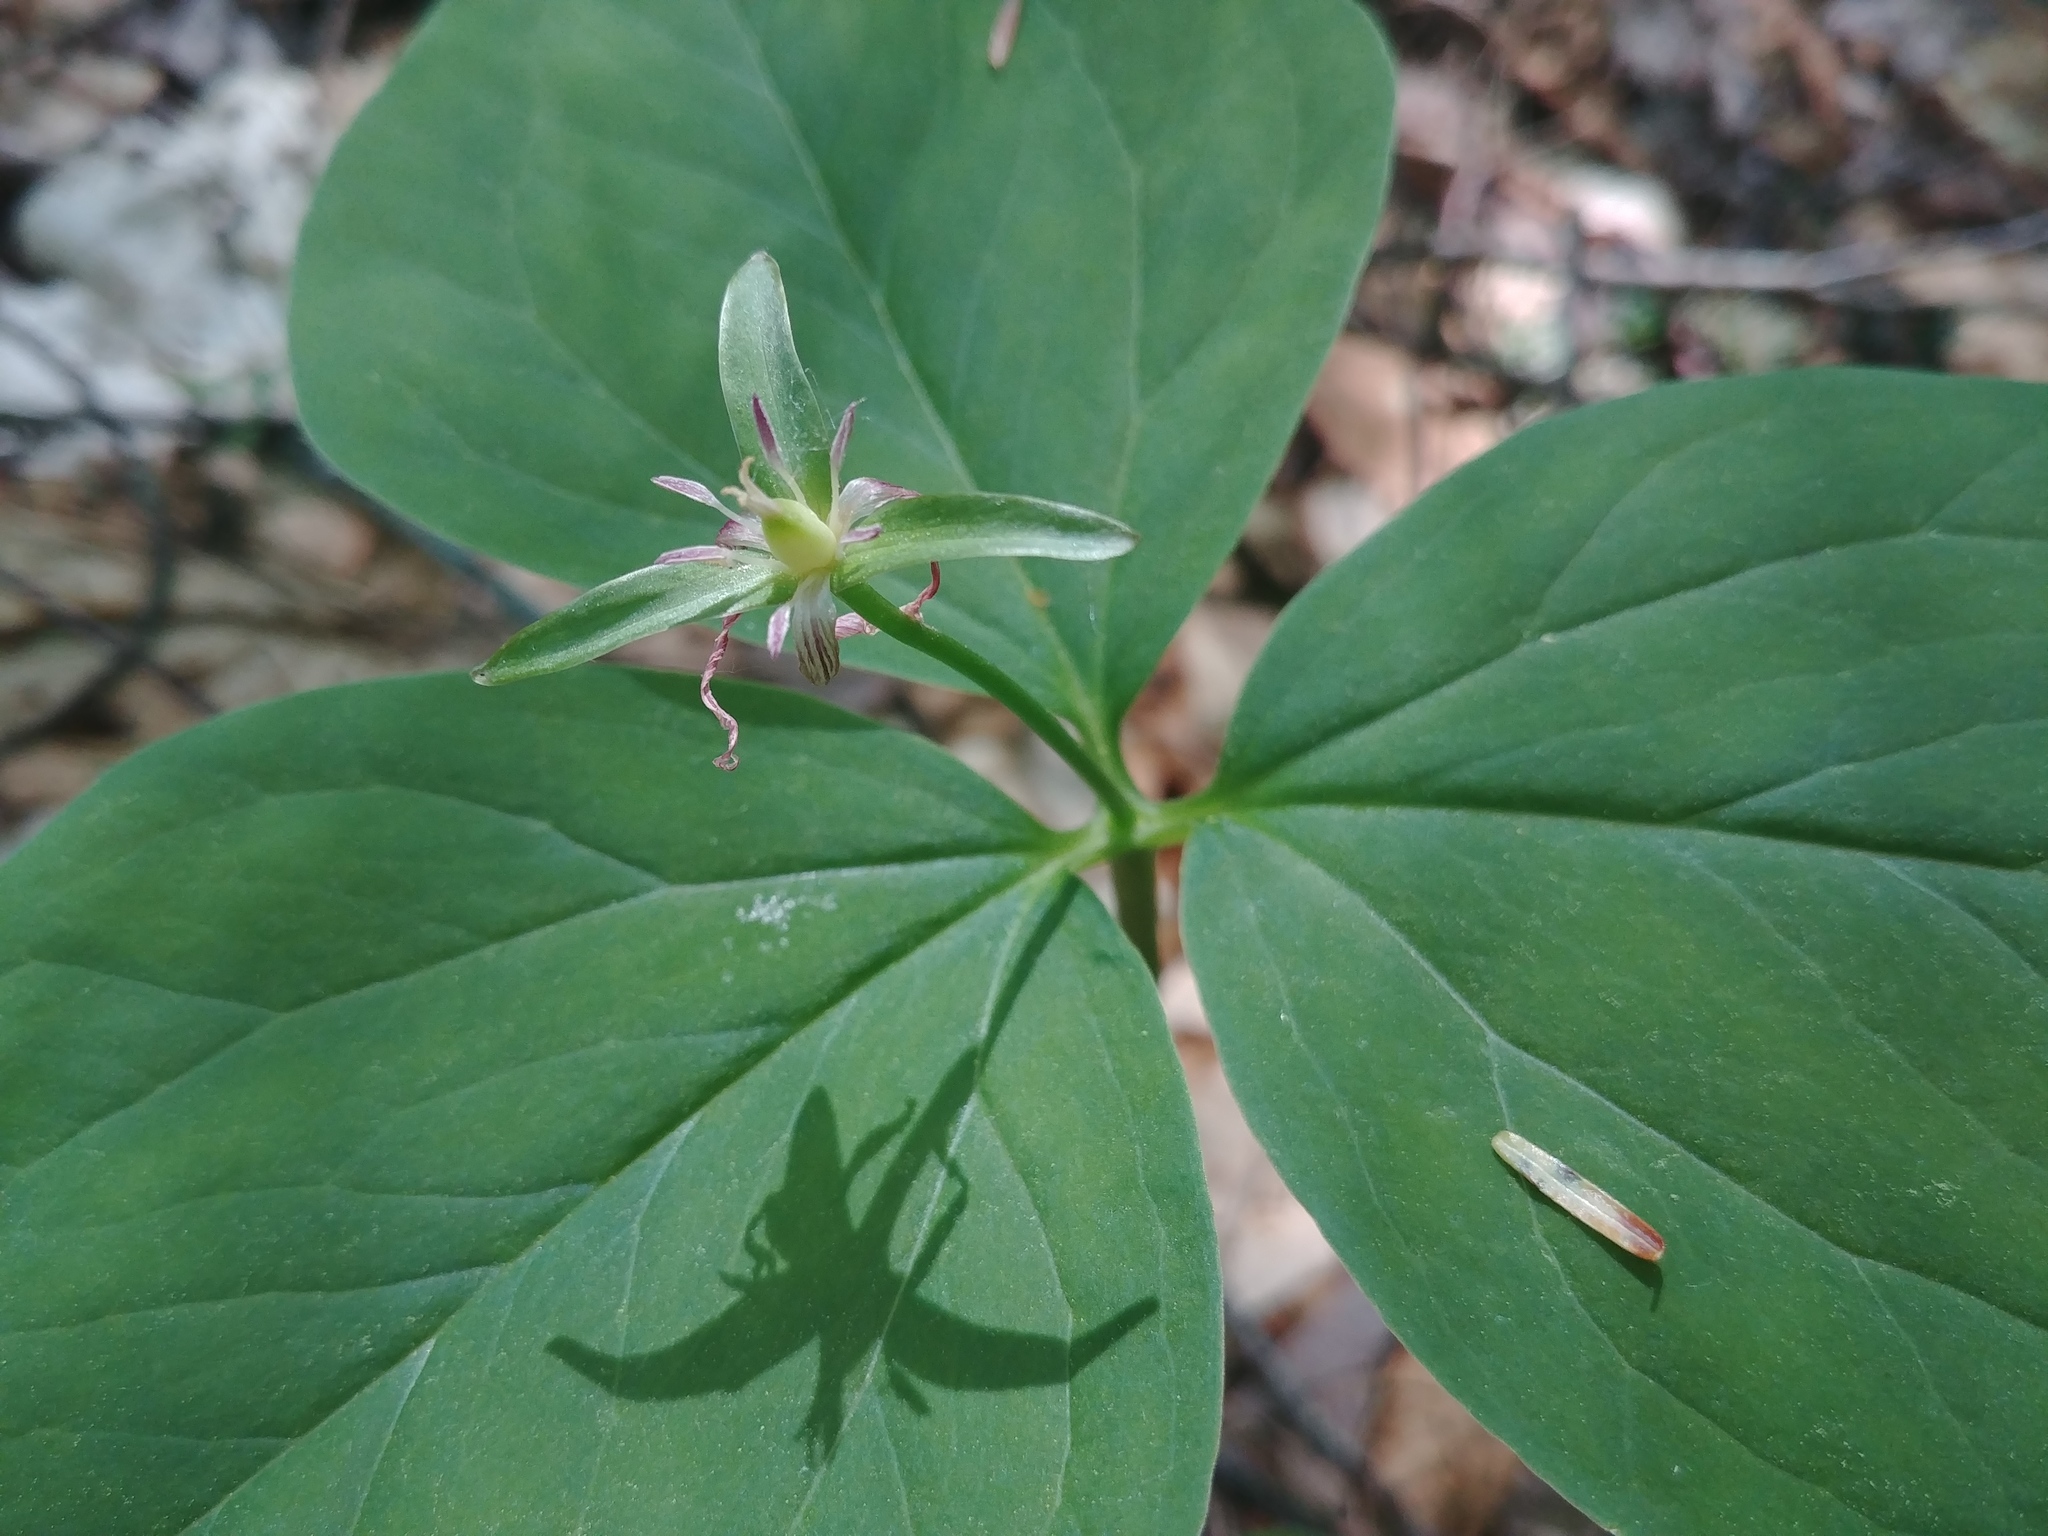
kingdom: Plantae
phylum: Tracheophyta
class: Liliopsida
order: Liliales
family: Melanthiaceae
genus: Trillium
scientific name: Trillium undulatum
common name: Paint trillium
